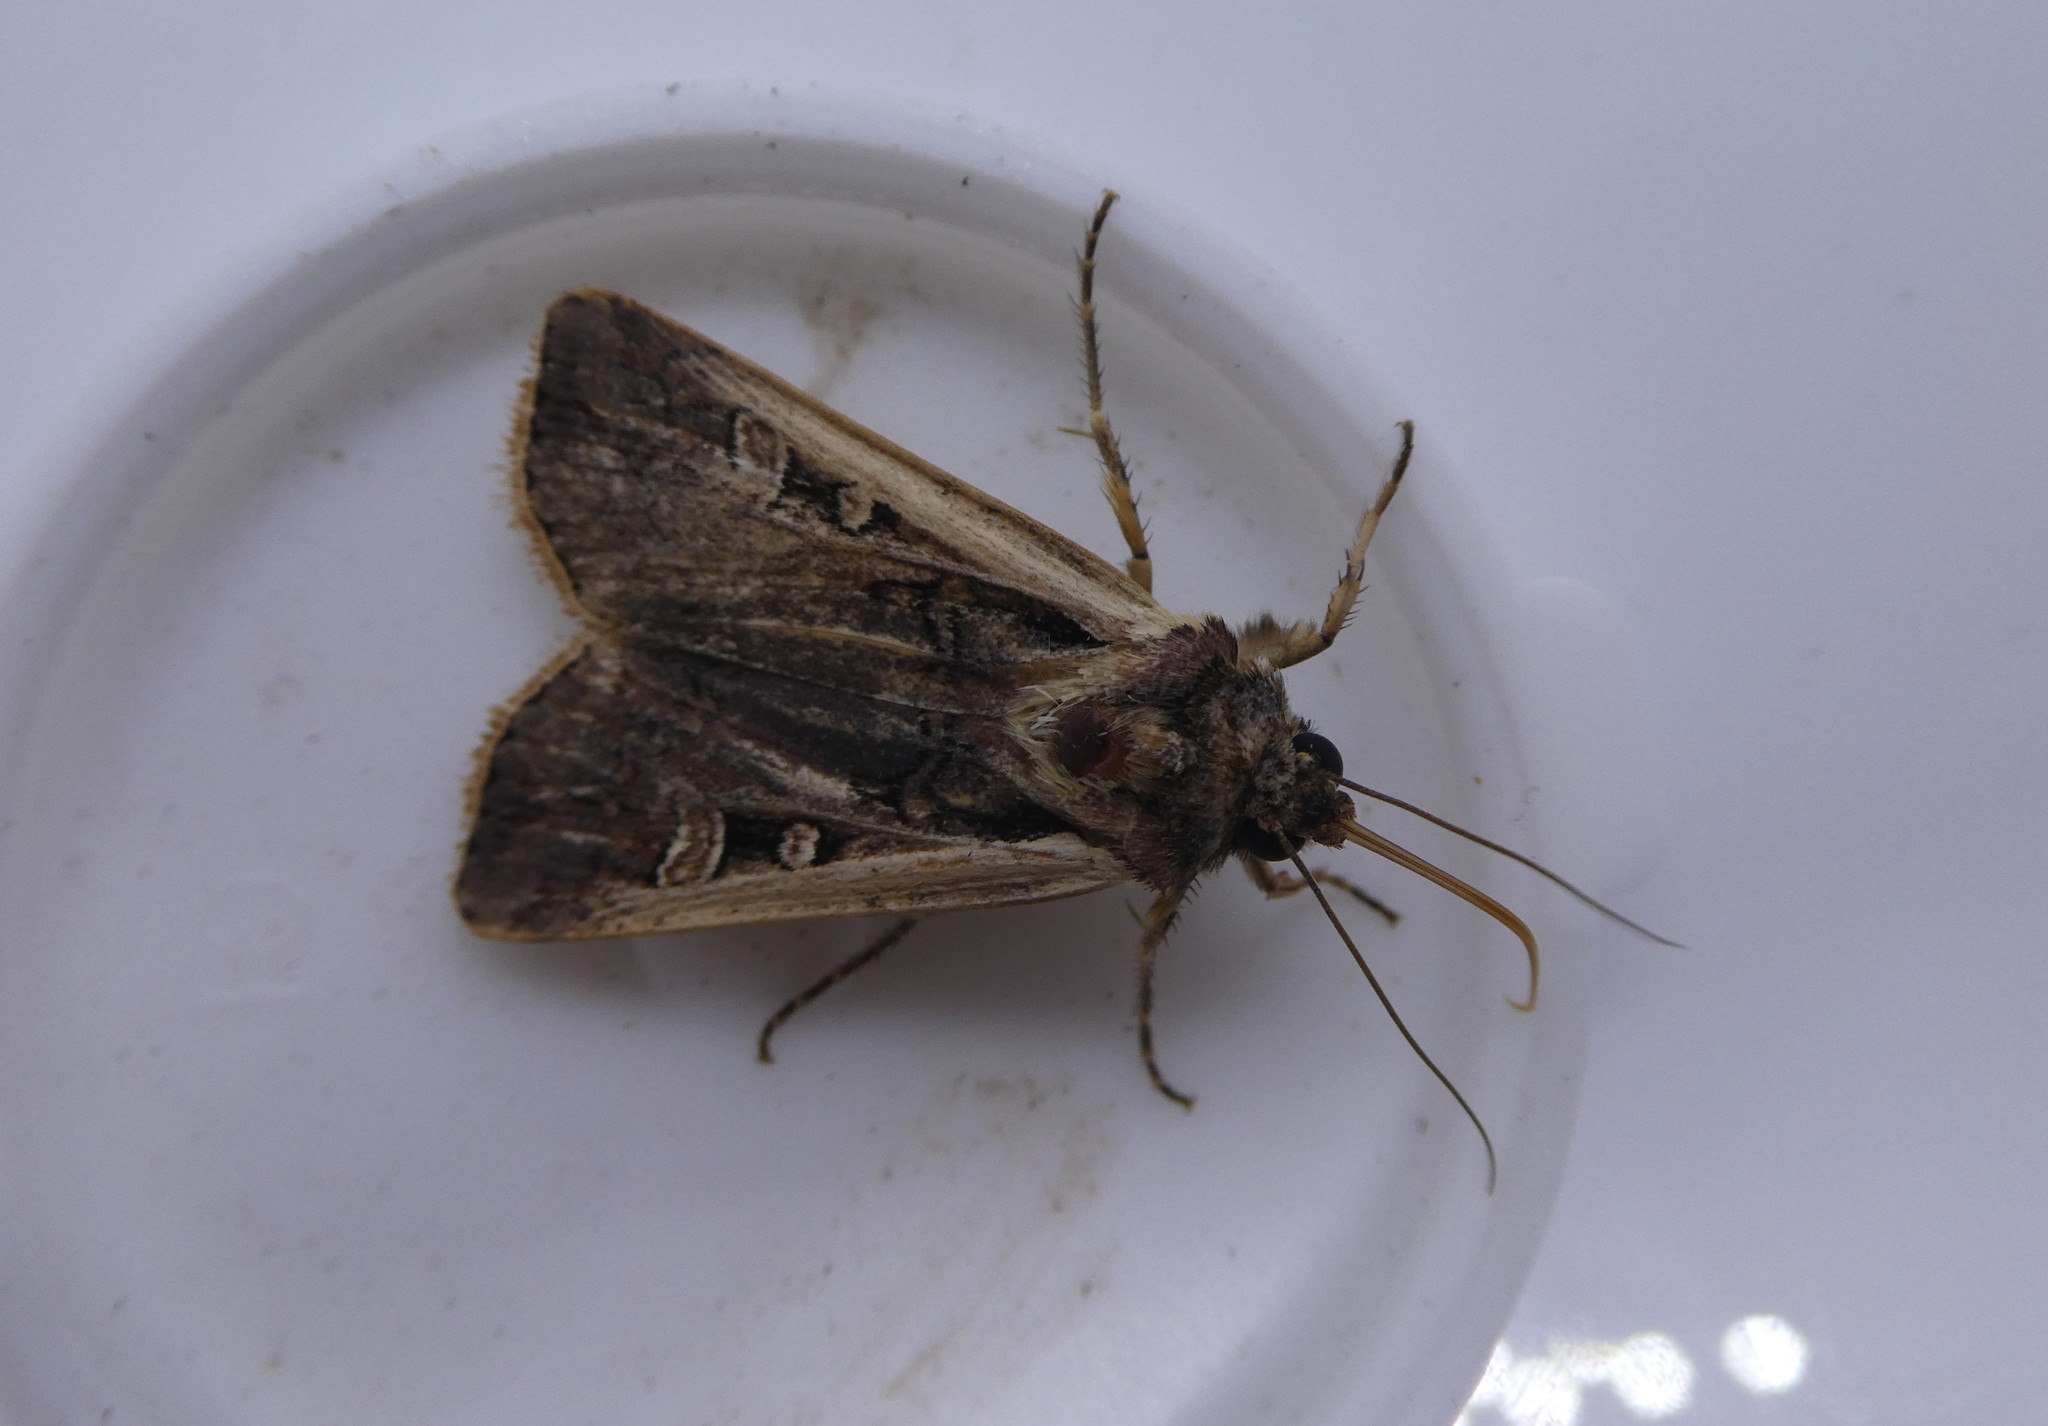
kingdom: Animalia
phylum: Arthropoda
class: Insecta
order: Lepidoptera
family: Noctuidae
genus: Striacosta
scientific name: Striacosta albicosta
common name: Western bean cutworm moth
